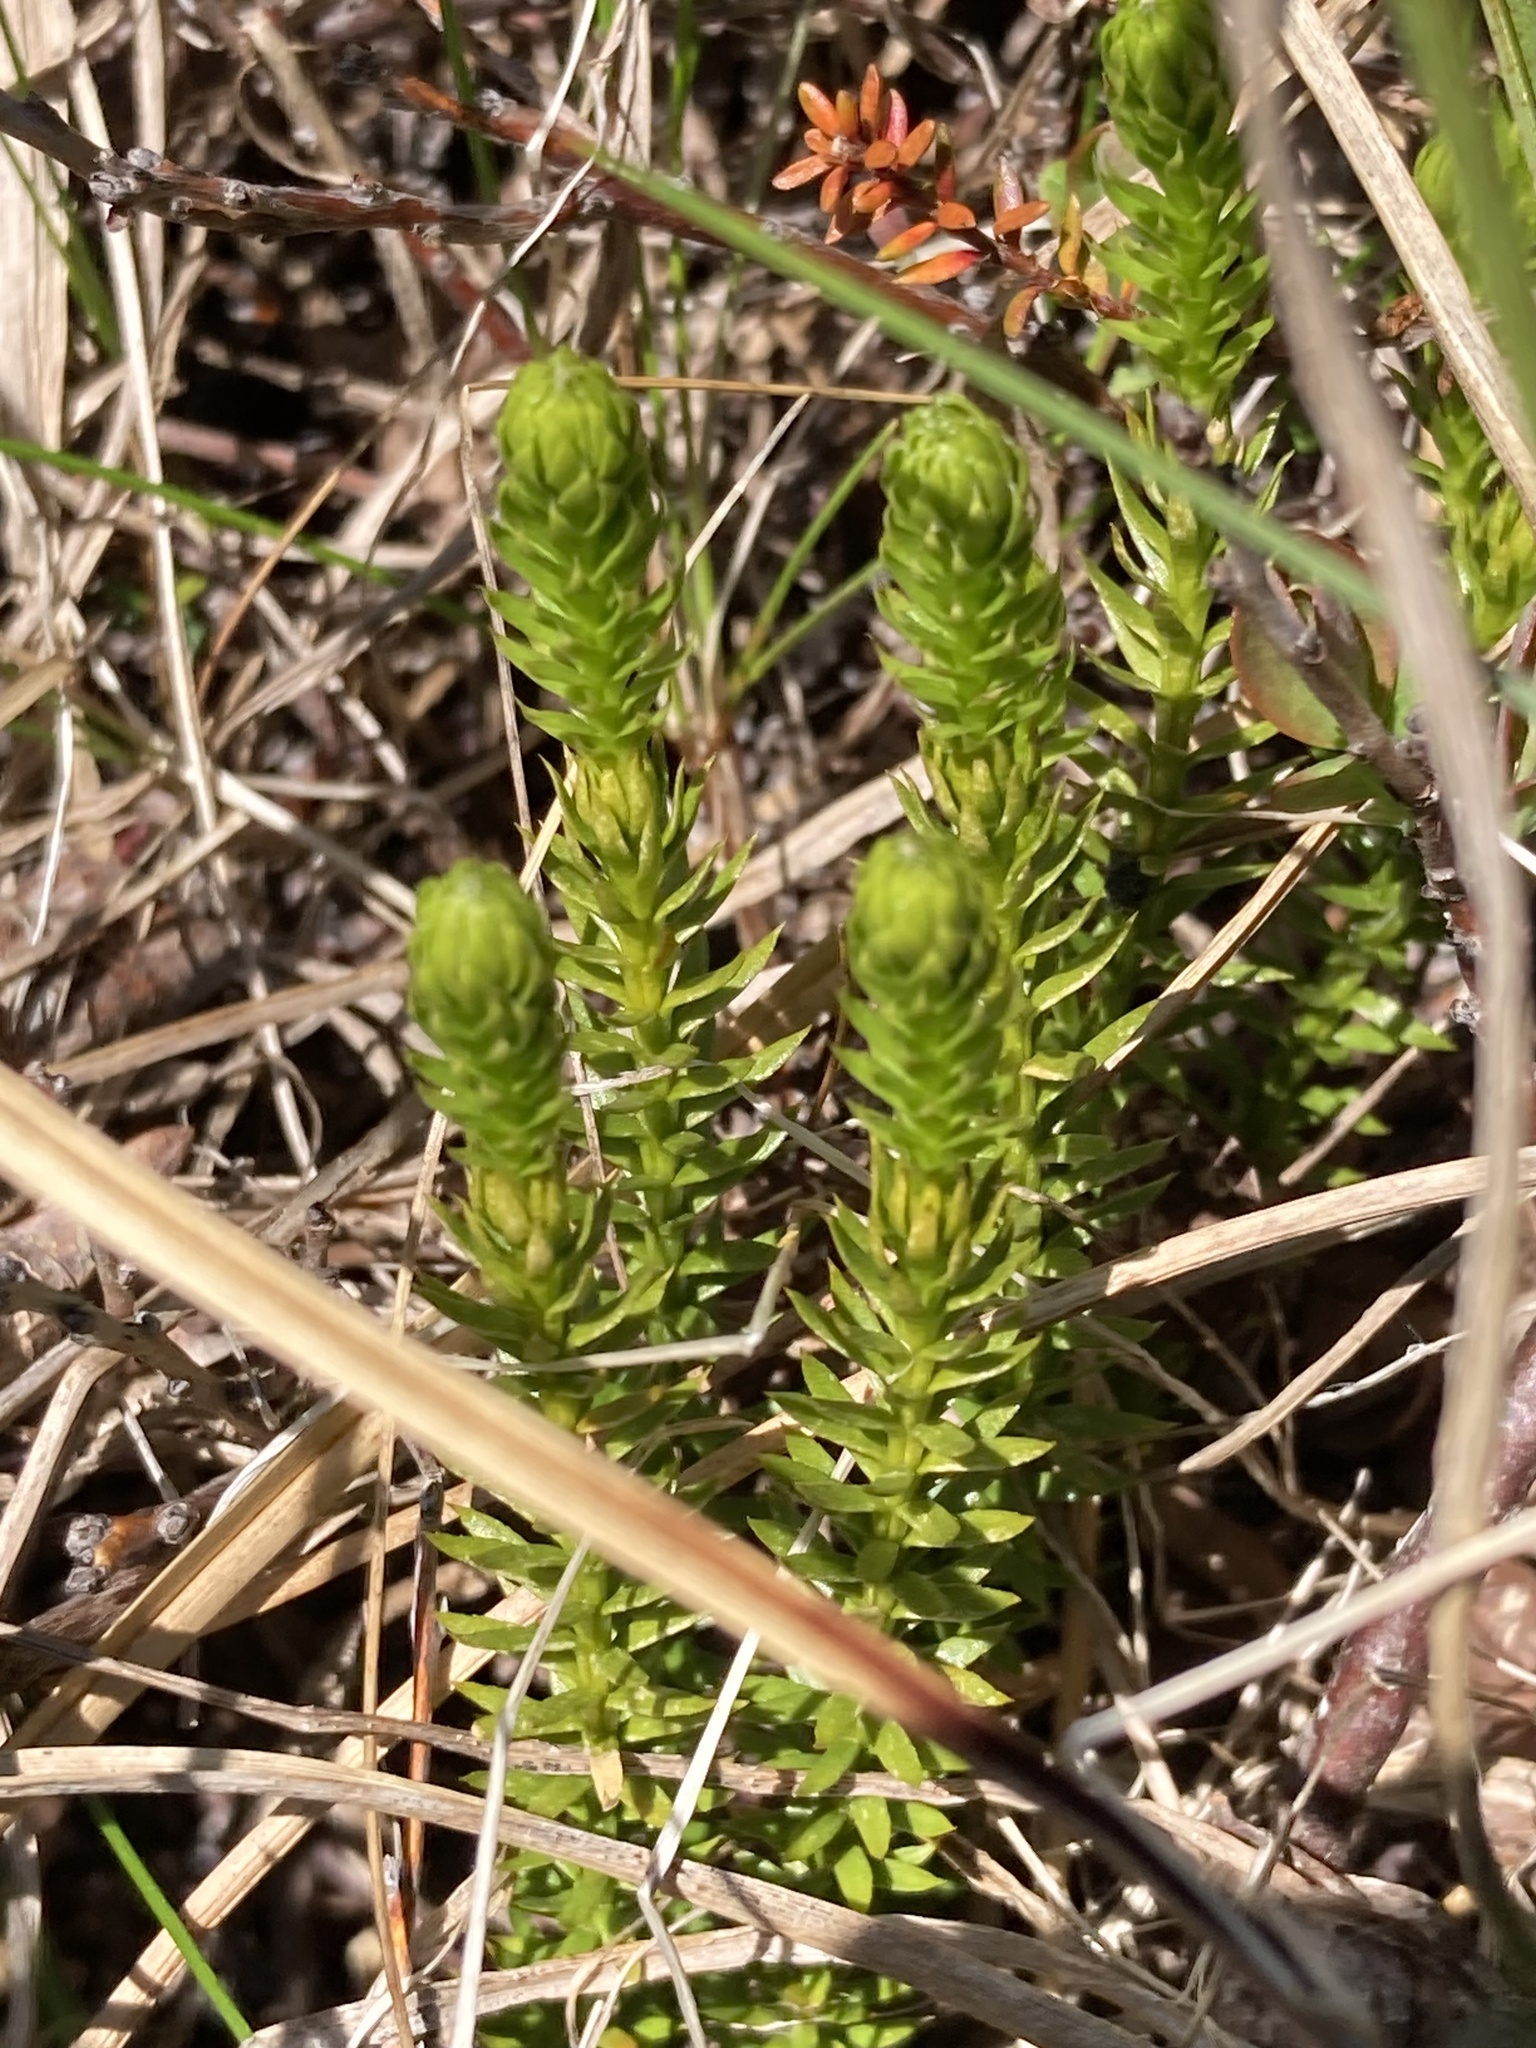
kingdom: Plantae
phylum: Tracheophyta
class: Lycopodiopsida
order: Lycopodiales
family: Lycopodiaceae
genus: Huperzia
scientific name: Huperzia selago
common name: Northern firmoss
